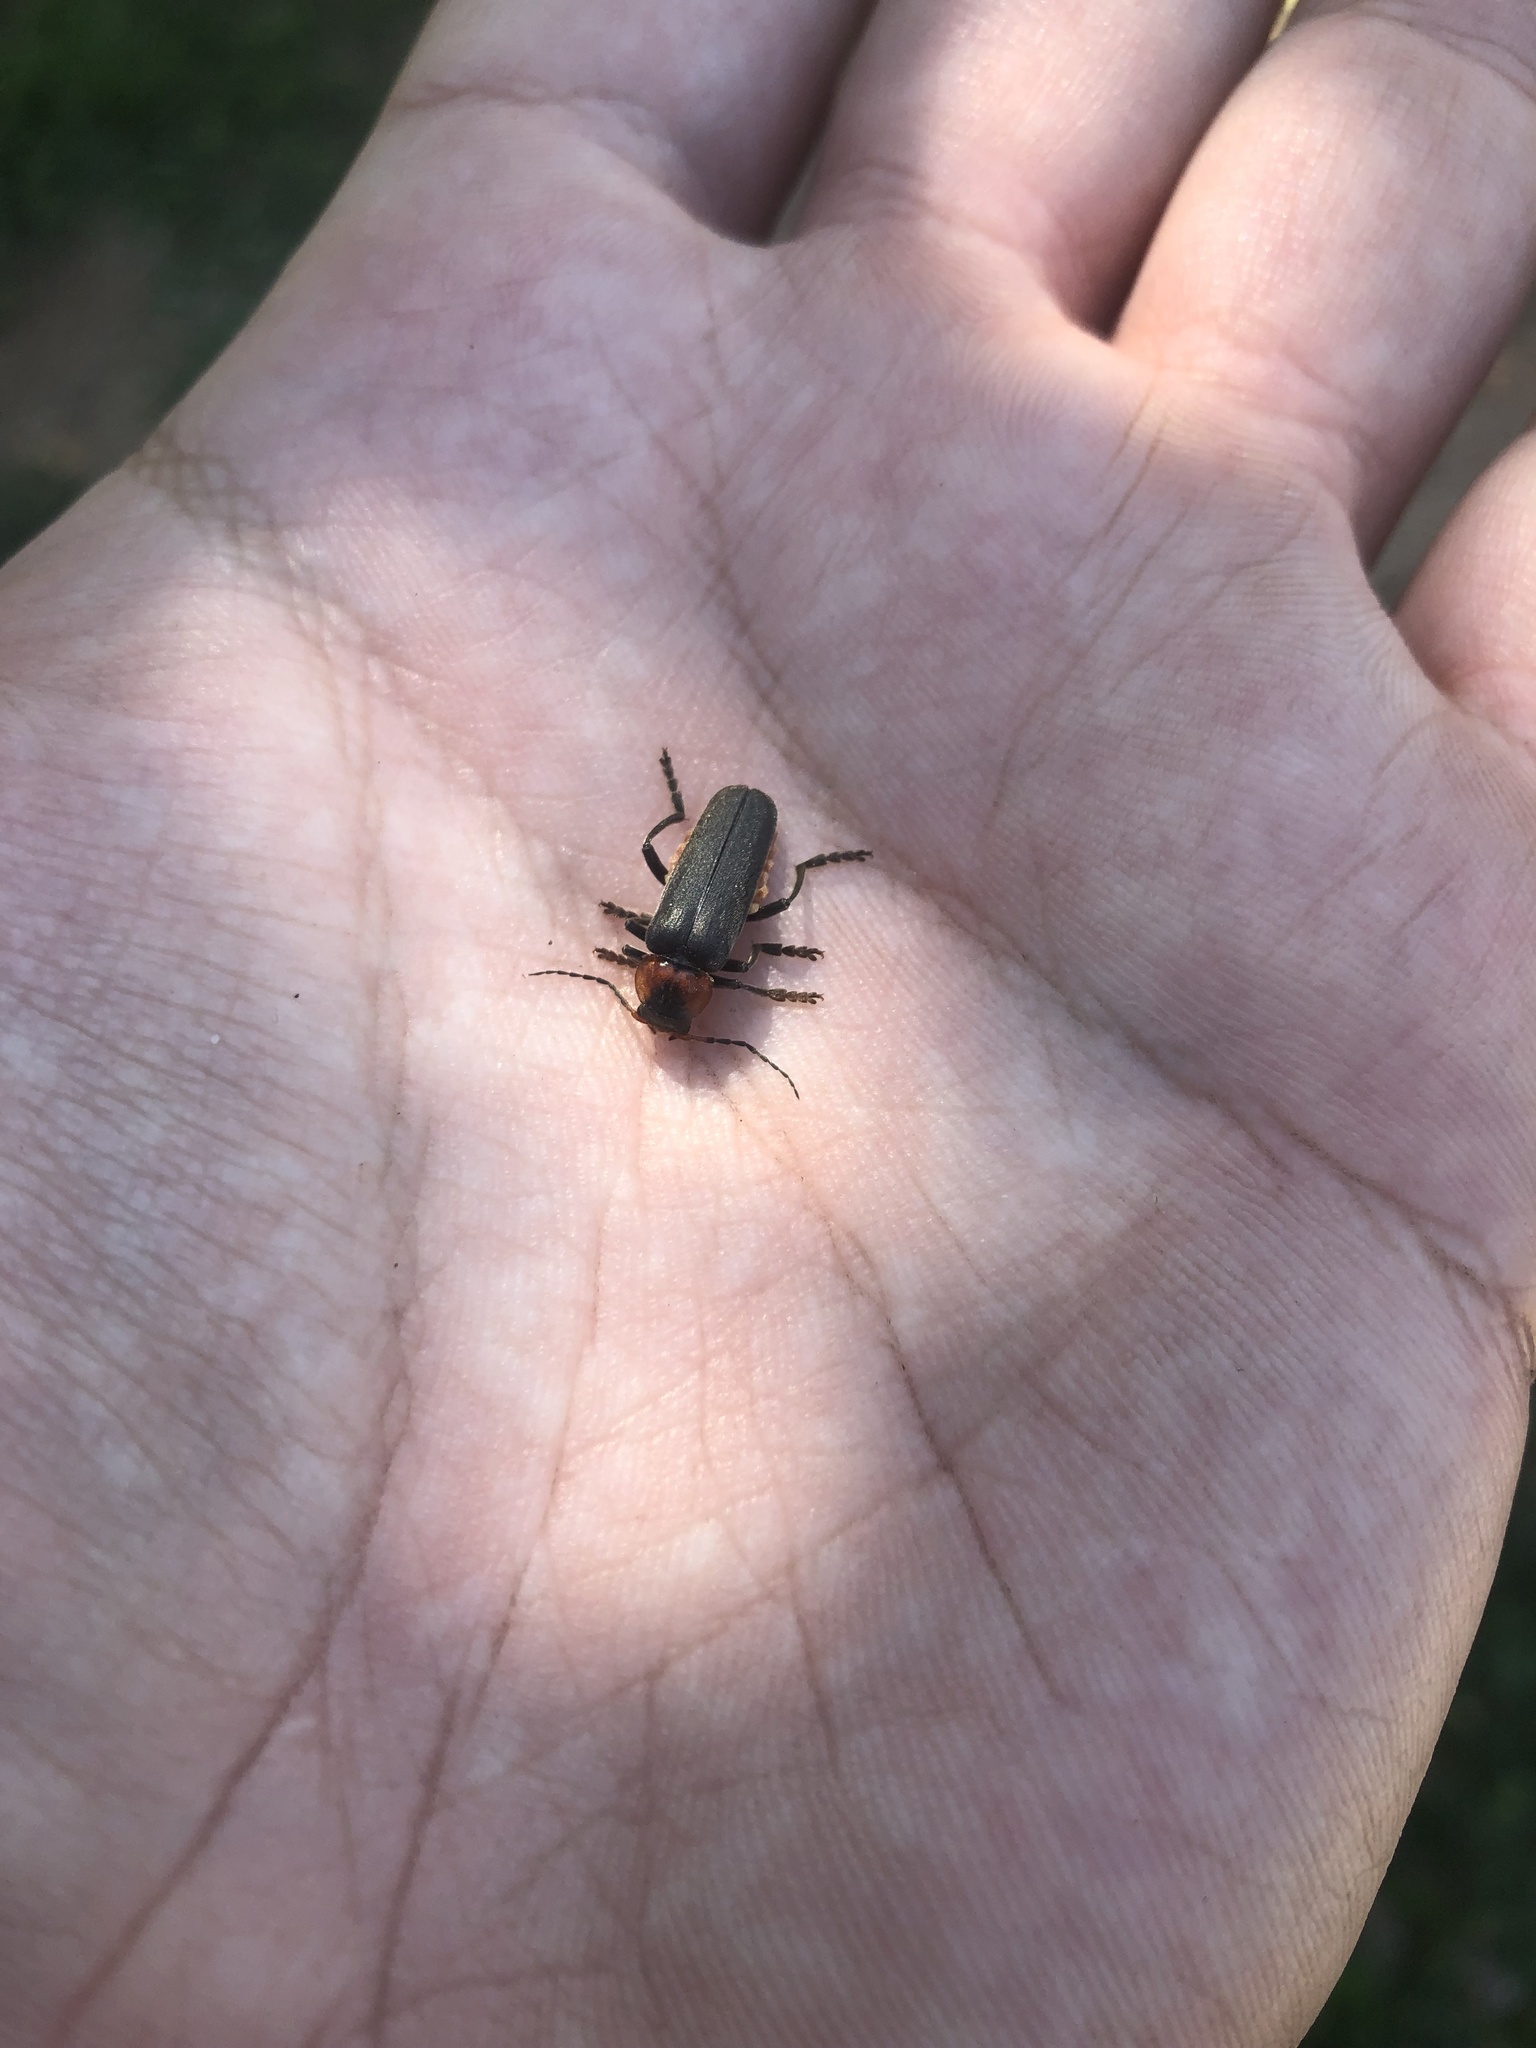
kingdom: Animalia
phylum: Arthropoda
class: Insecta
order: Coleoptera
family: Cantharidae
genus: Cantharis
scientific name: Cantharis fusca
